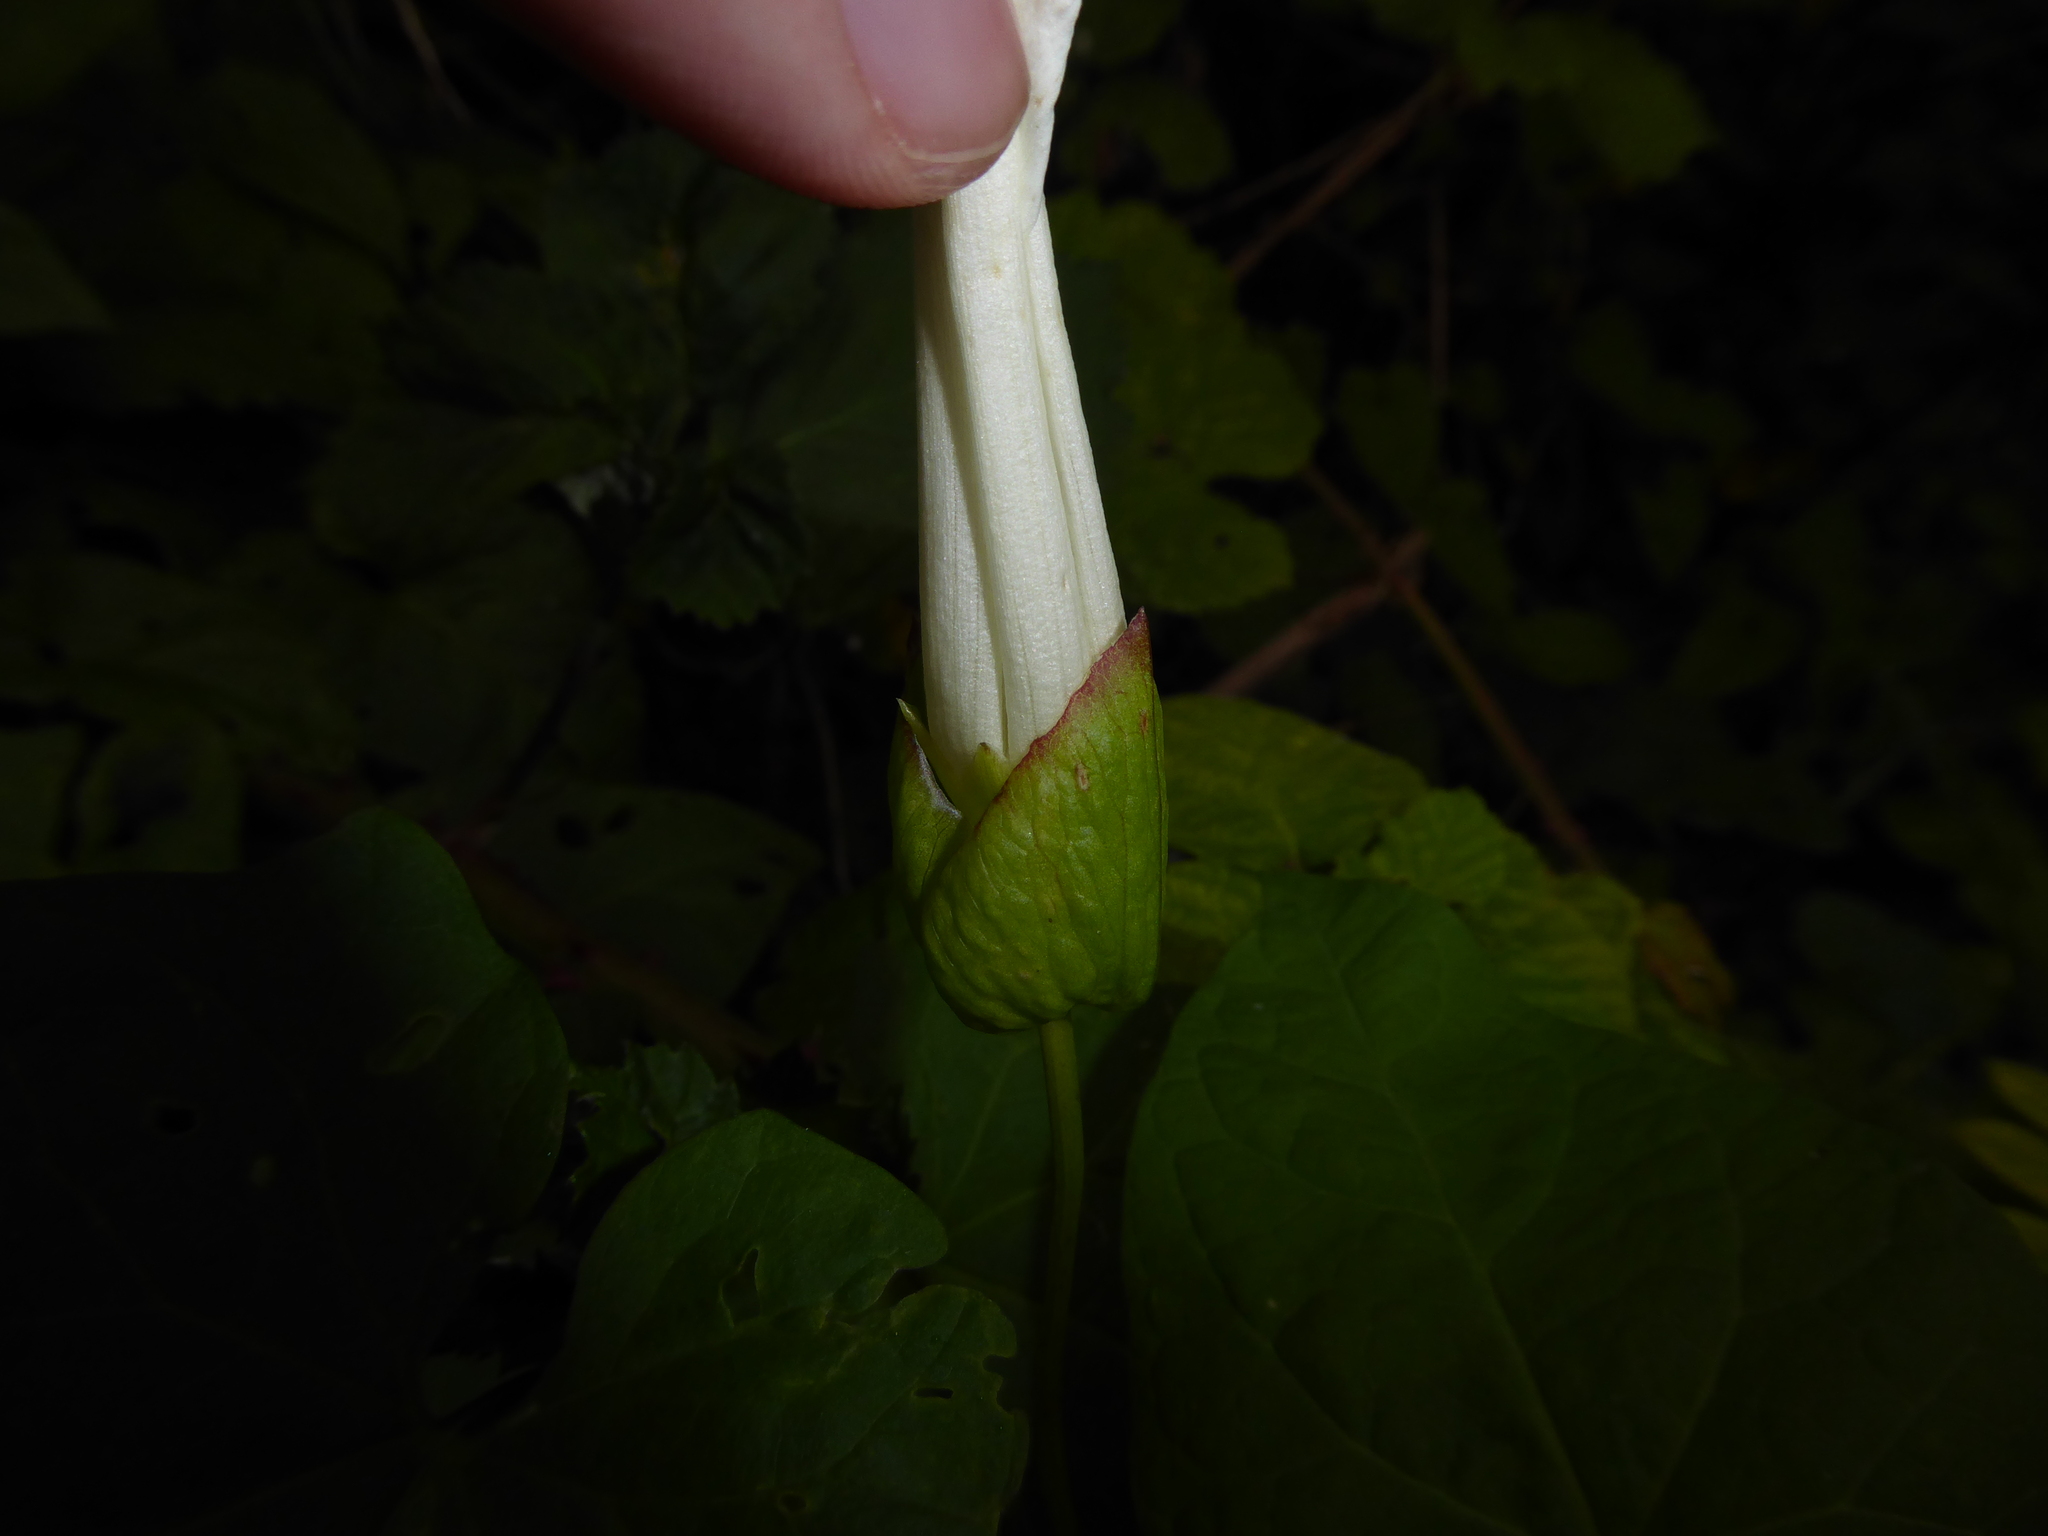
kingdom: Plantae
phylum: Tracheophyta
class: Magnoliopsida
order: Solanales
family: Convolvulaceae
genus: Calystegia
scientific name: Calystegia lucana
